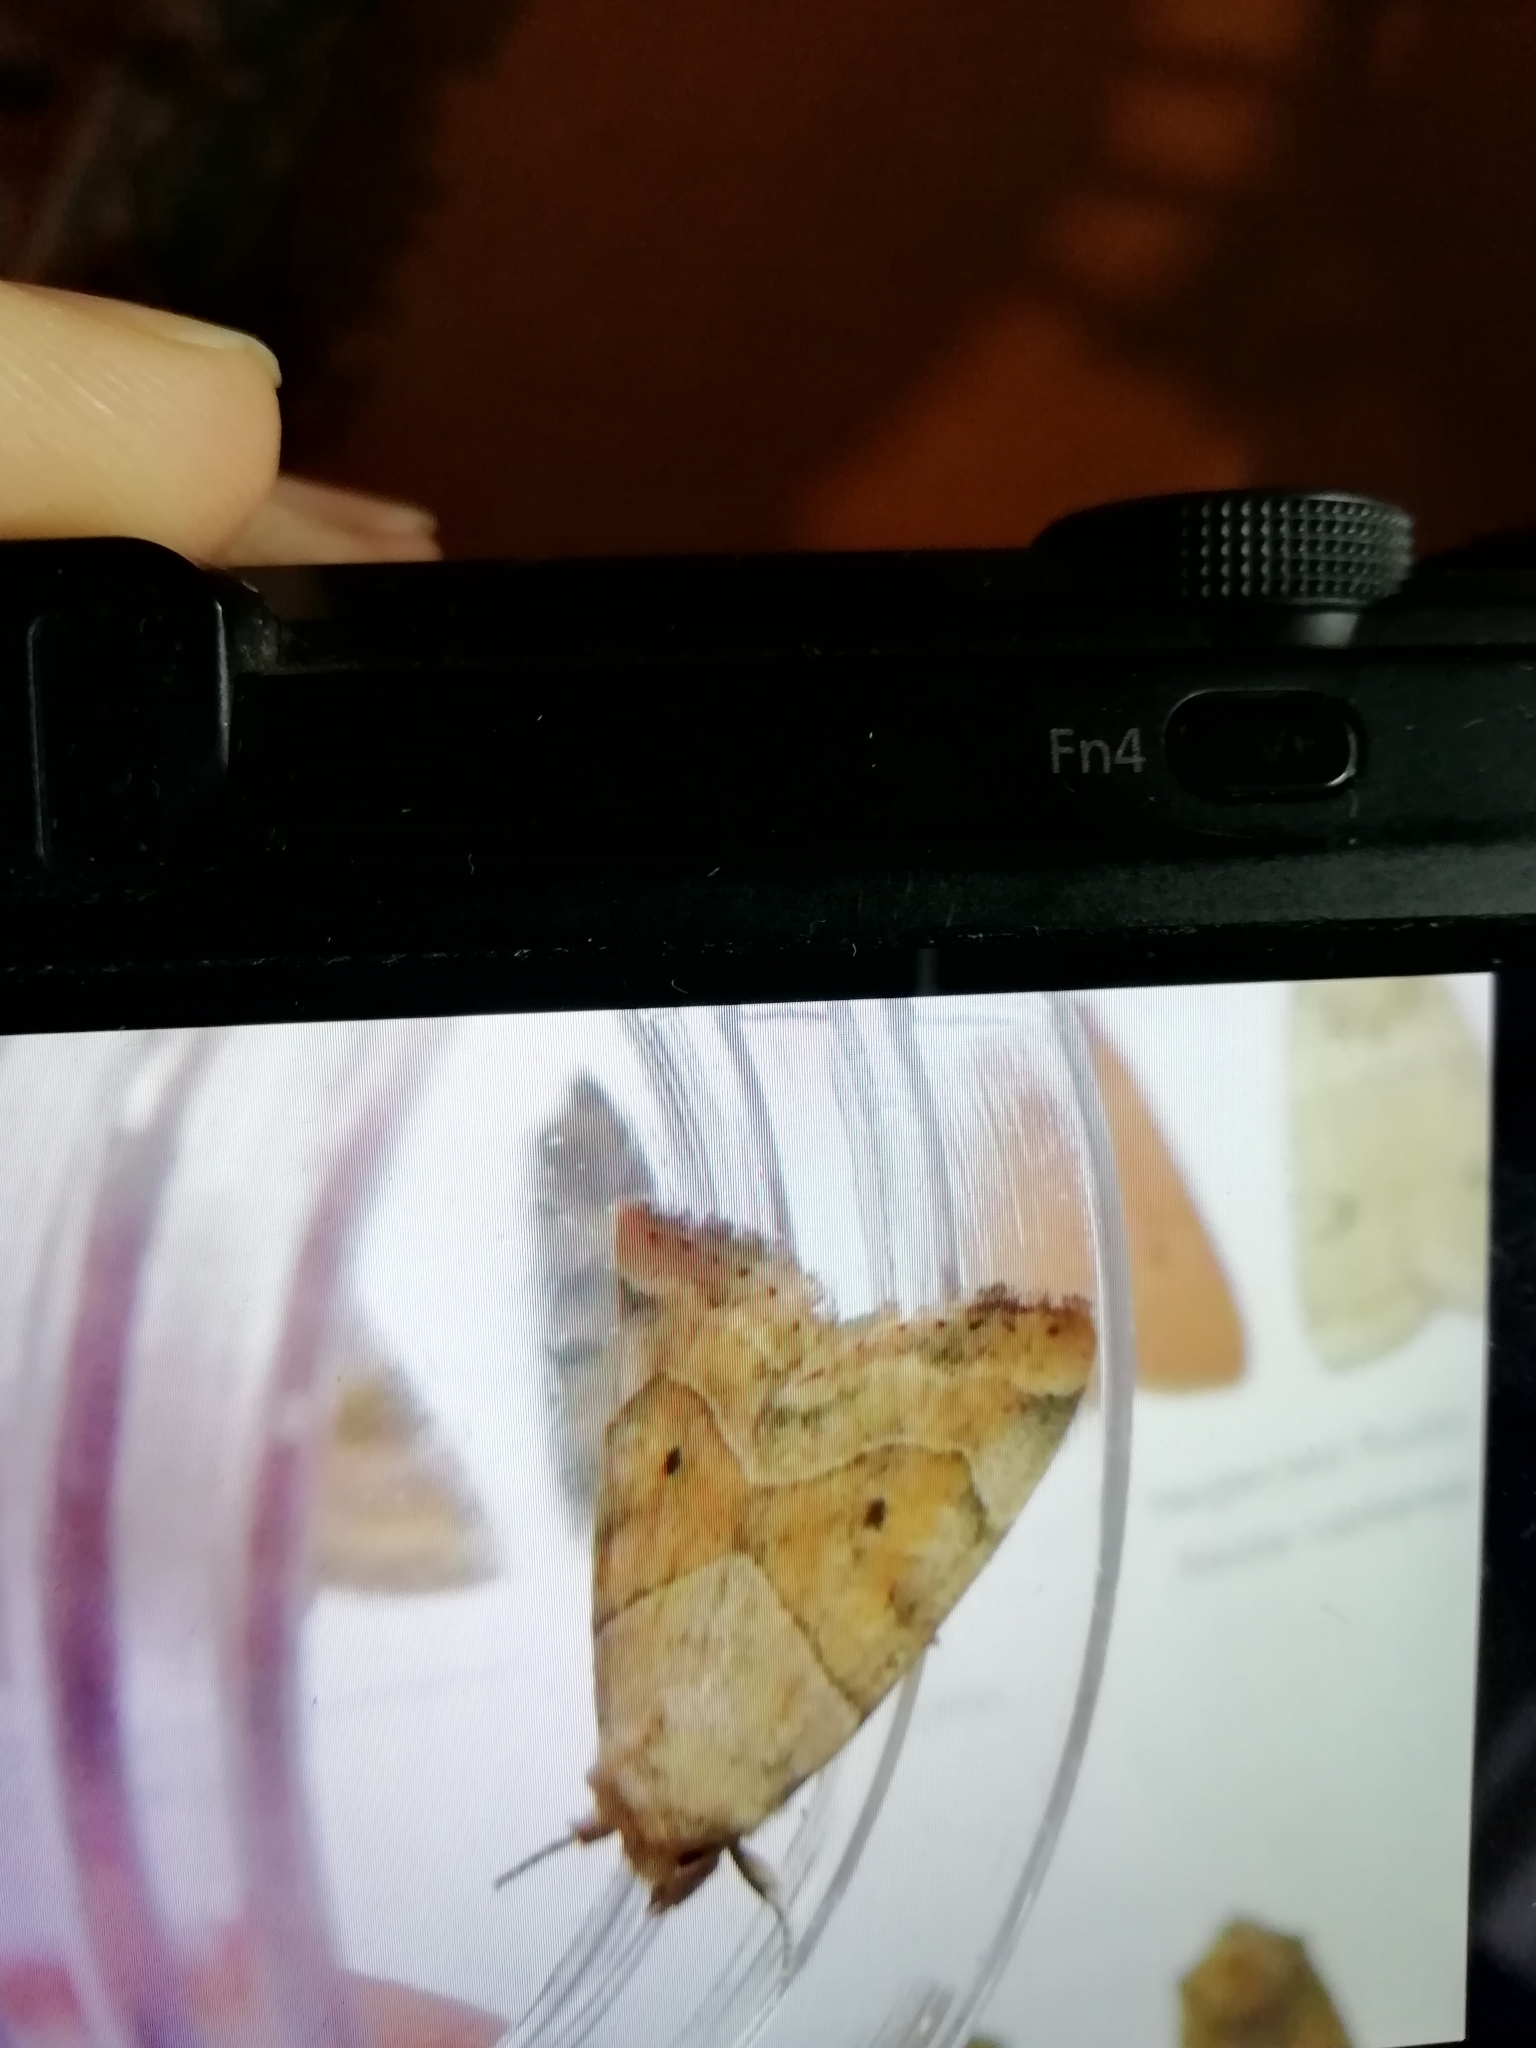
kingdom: Animalia
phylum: Arthropoda
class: Insecta
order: Lepidoptera
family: Noctuidae
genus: Cosmia
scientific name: Cosmia trapezina
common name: Dun-bar
